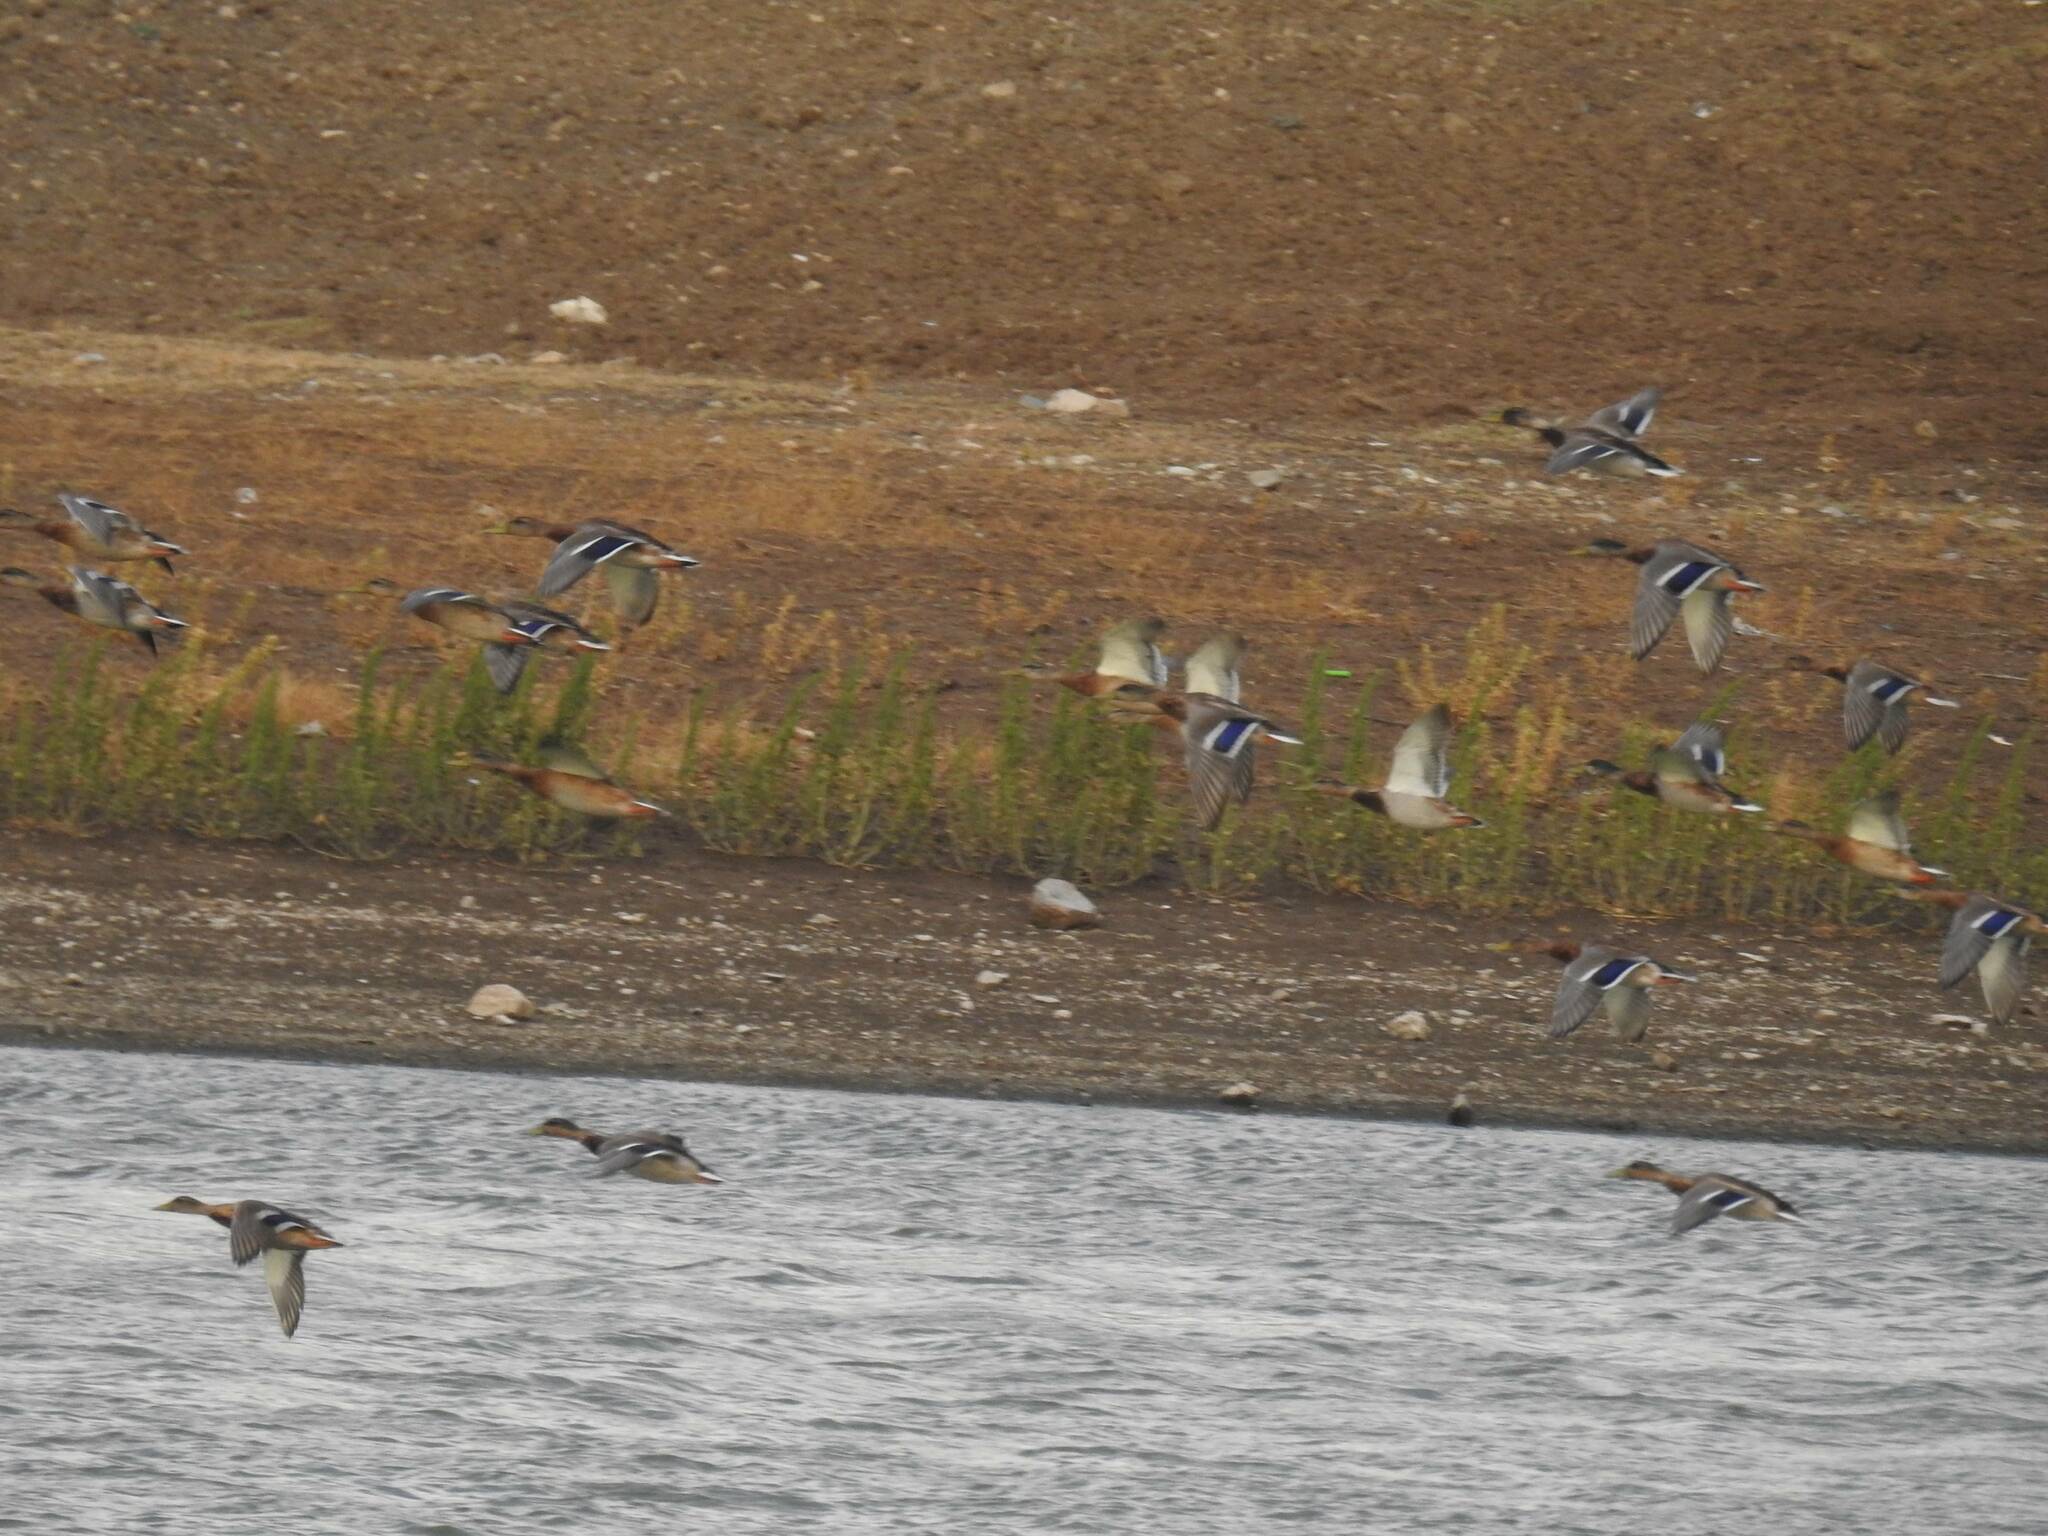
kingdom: Animalia
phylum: Chordata
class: Aves
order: Anseriformes
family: Anatidae
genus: Anas
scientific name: Anas platyrhynchos
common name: Mallard
